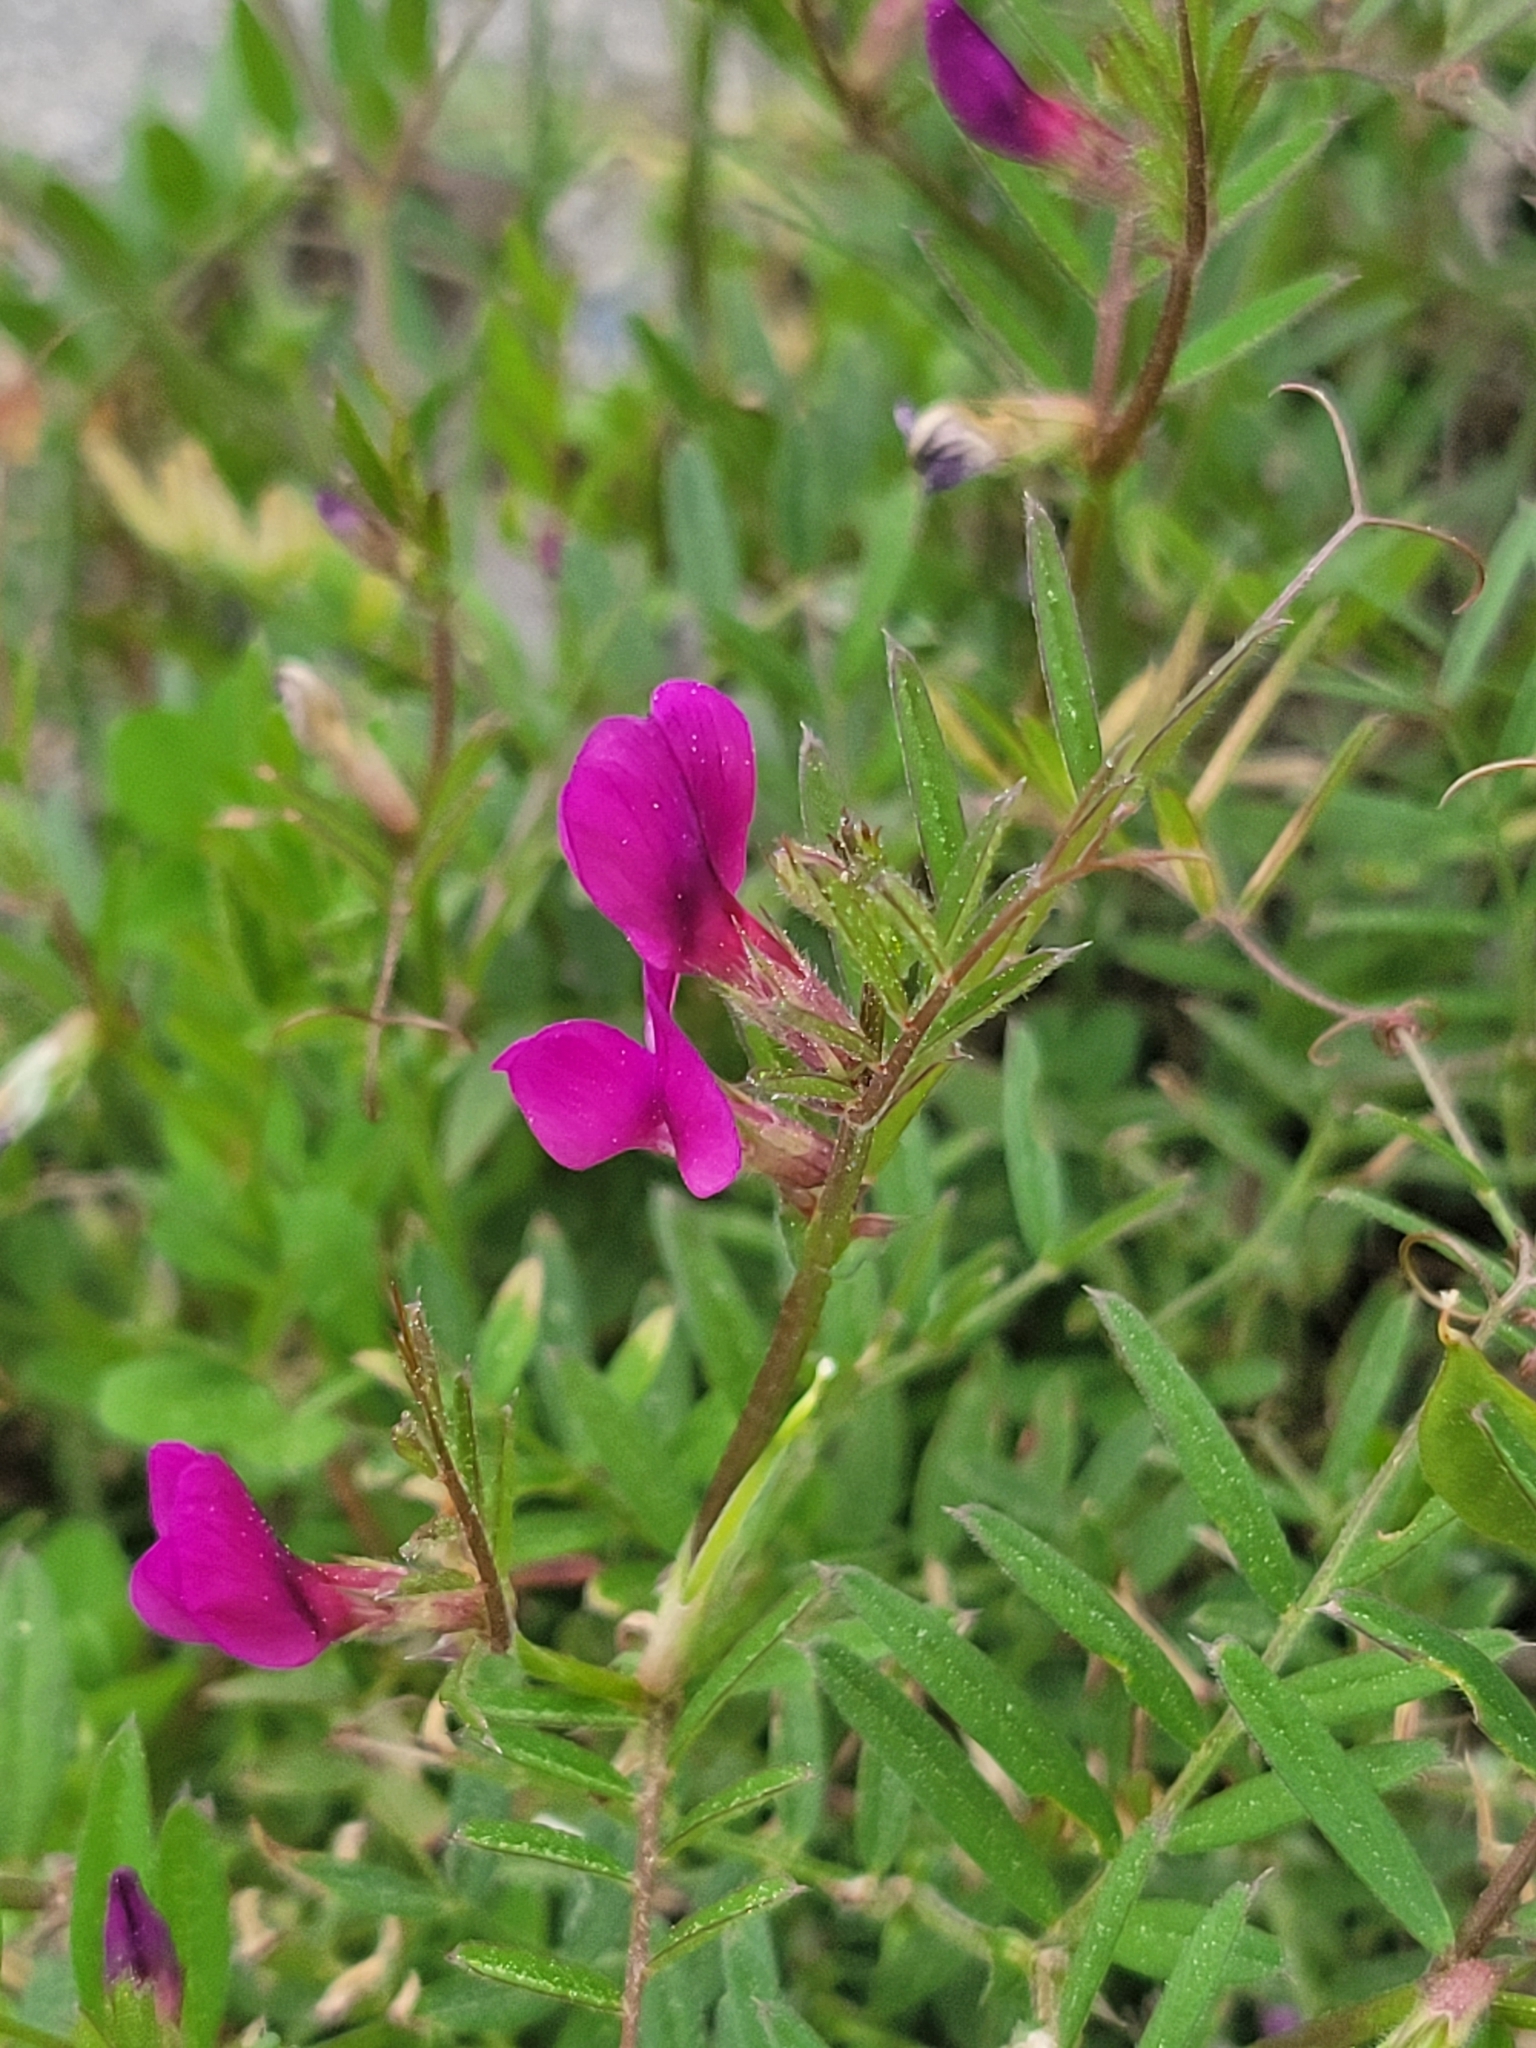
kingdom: Plantae
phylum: Tracheophyta
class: Magnoliopsida
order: Fabales
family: Fabaceae
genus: Vicia
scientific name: Vicia sativa
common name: Garden vetch
